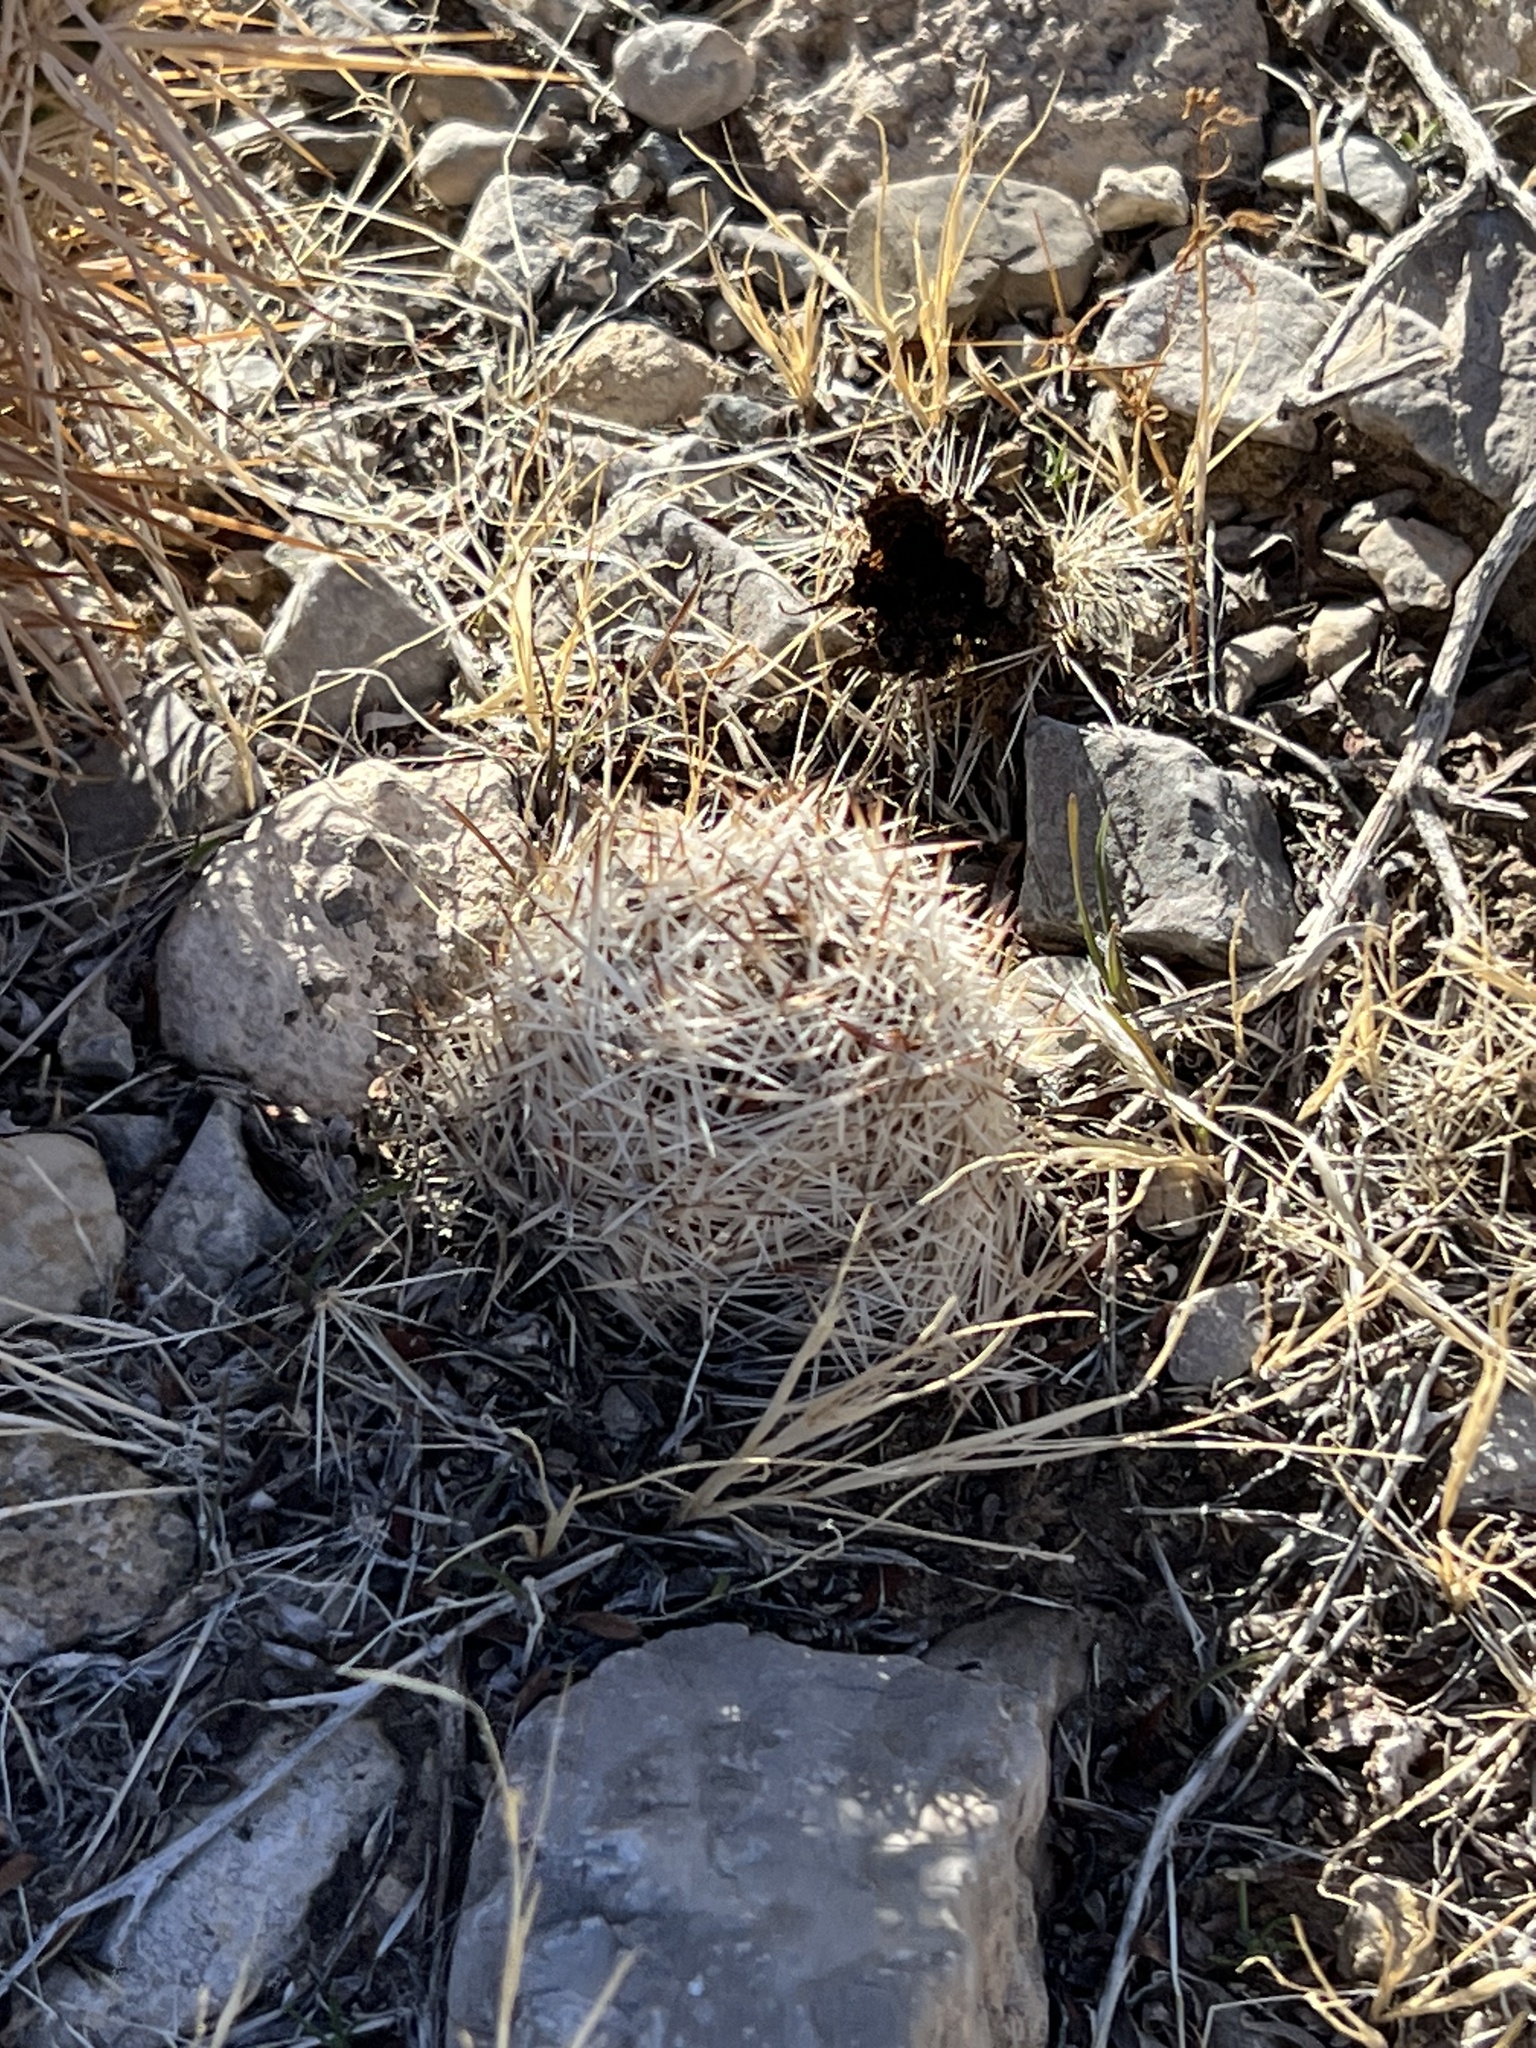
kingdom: Plantae
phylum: Tracheophyta
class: Magnoliopsida
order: Caryophyllales
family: Cactaceae
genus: Pelecyphora
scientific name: Pelecyphora dasyacantha
